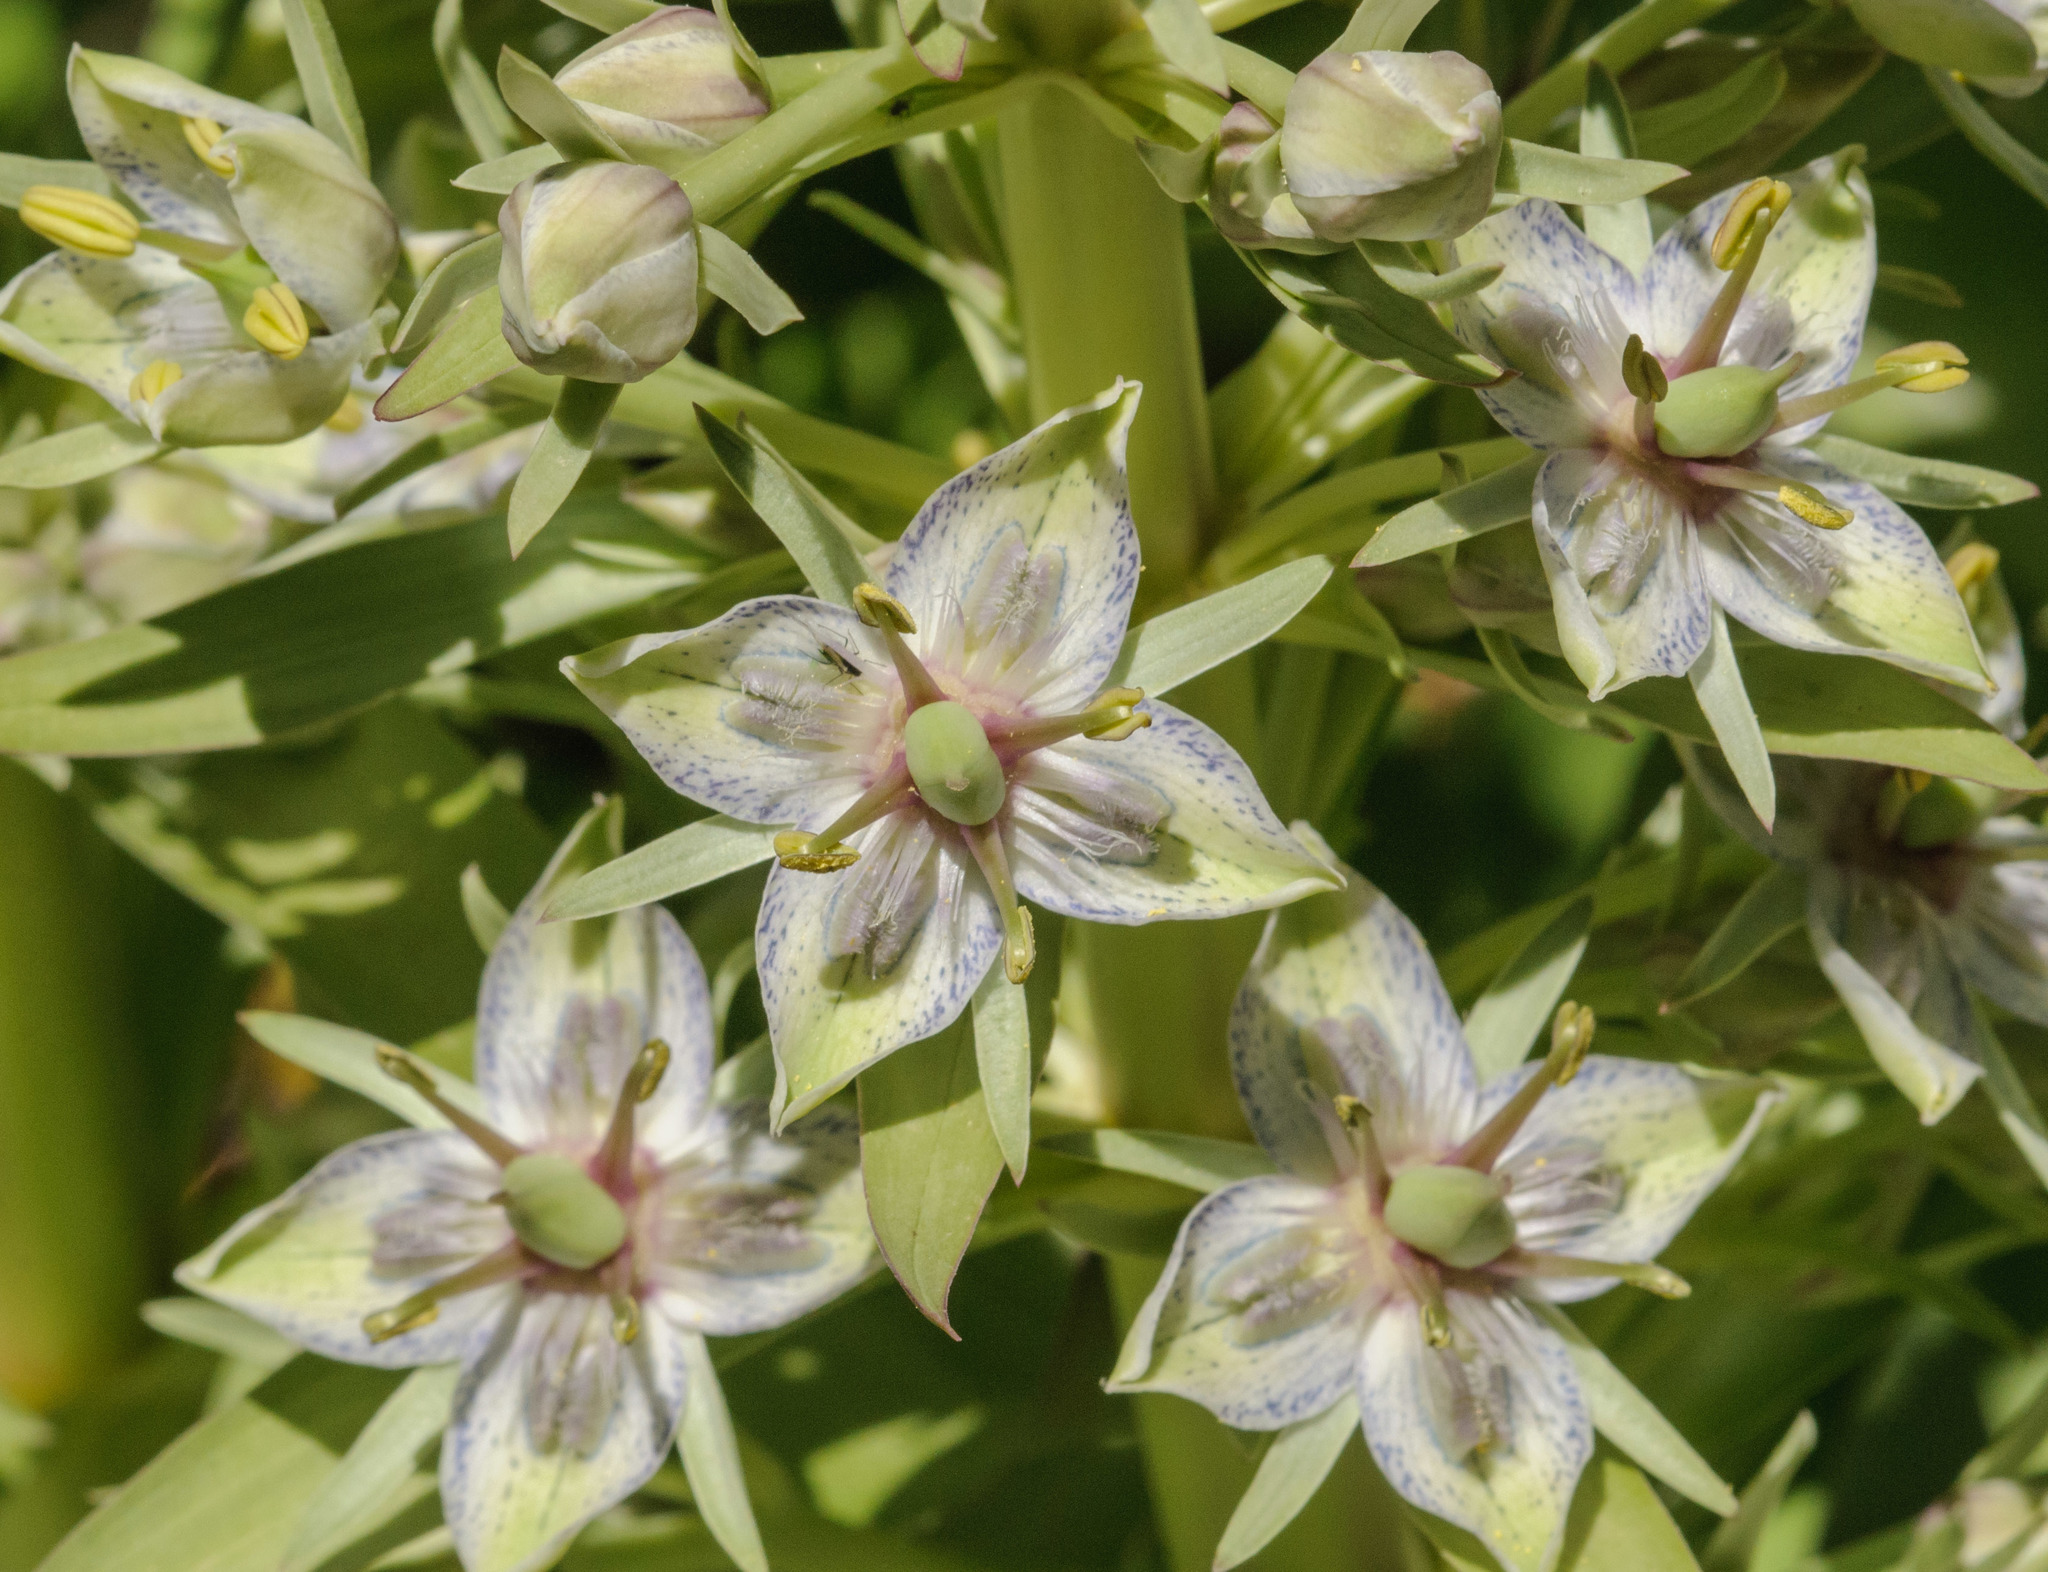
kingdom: Plantae
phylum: Tracheophyta
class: Magnoliopsida
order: Gentianales
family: Gentianaceae
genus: Frasera
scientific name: Frasera speciosa
